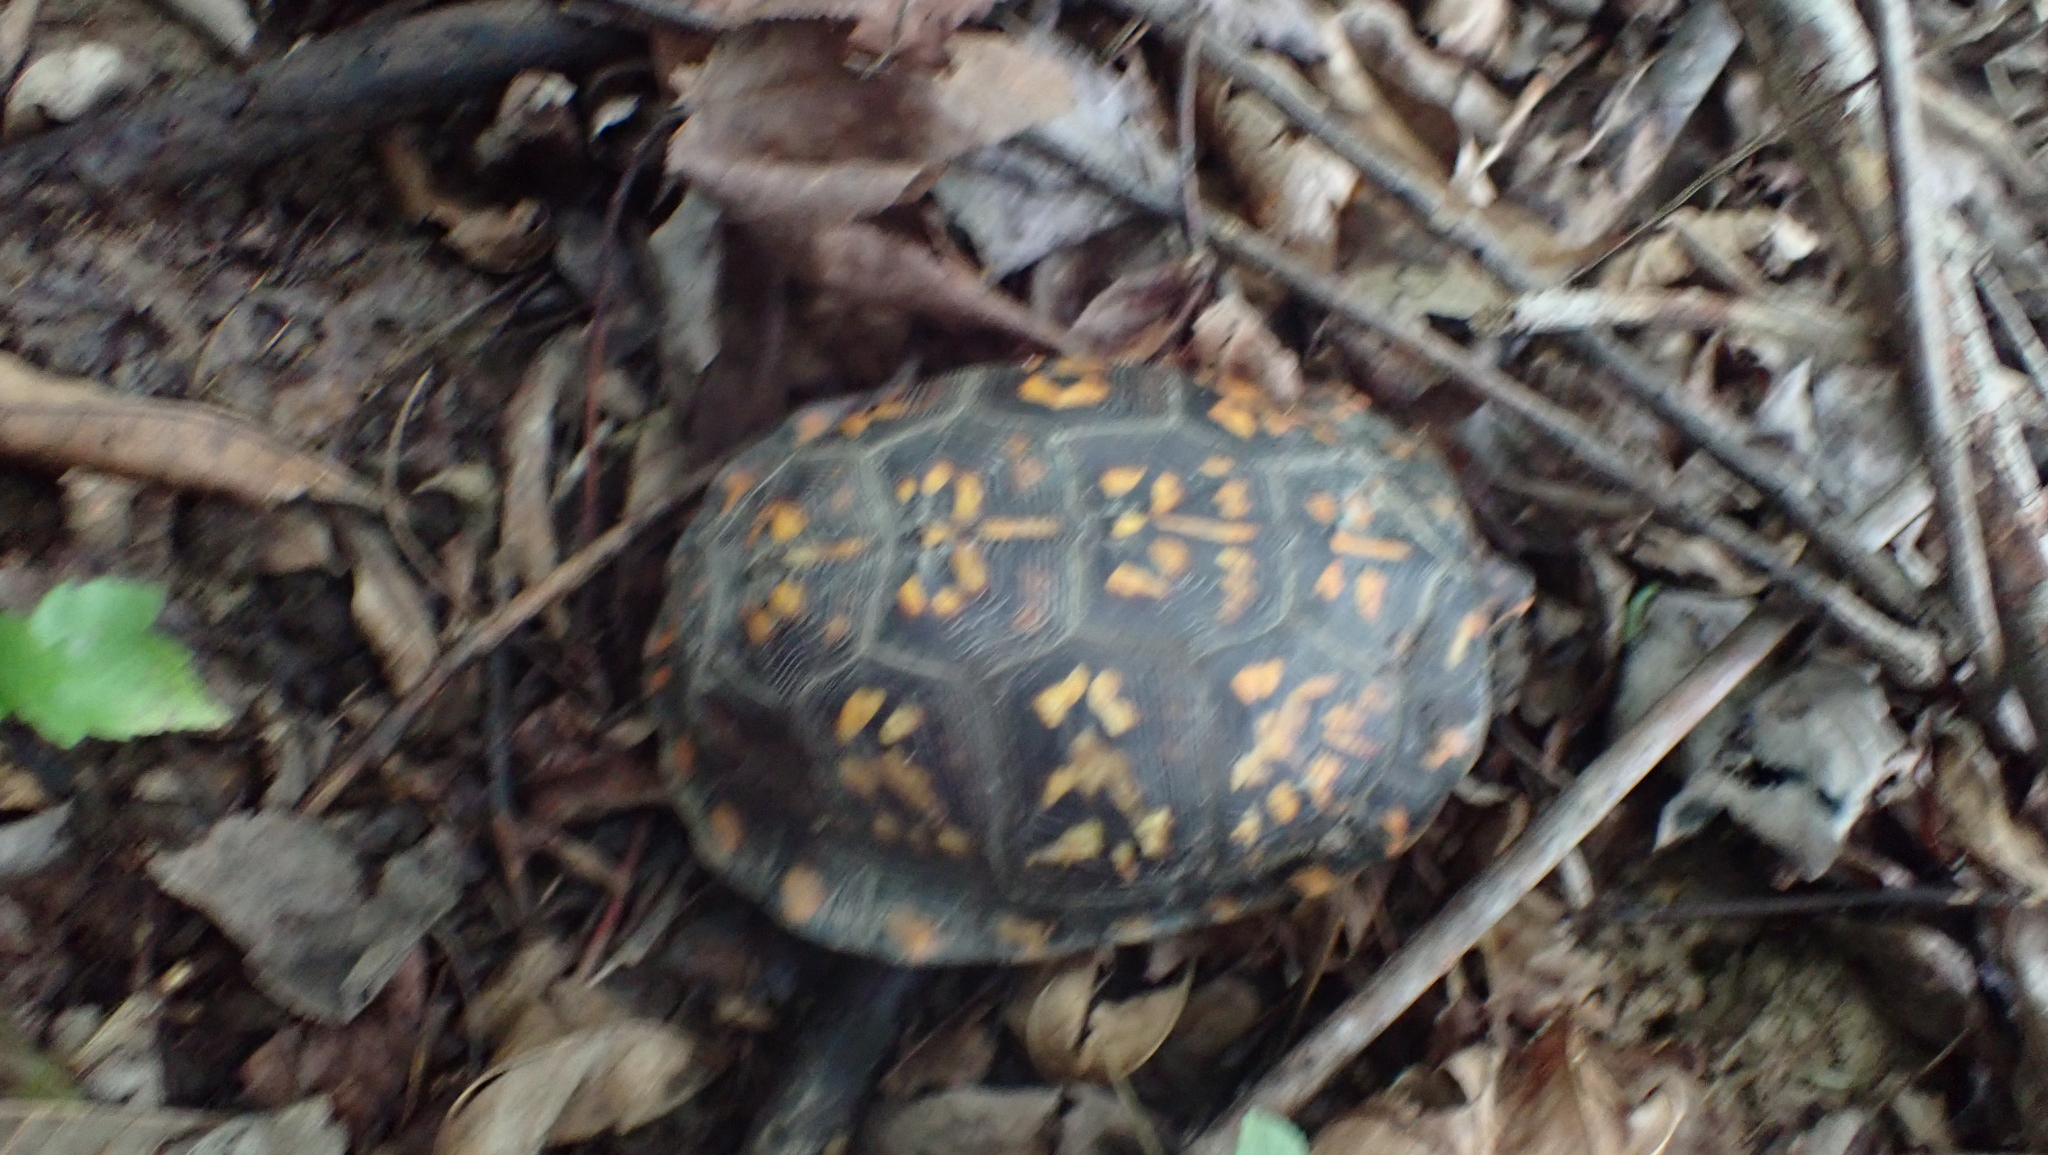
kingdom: Animalia
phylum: Chordata
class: Testudines
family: Emydidae
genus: Terrapene
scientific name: Terrapene carolina
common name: Common box turtle
